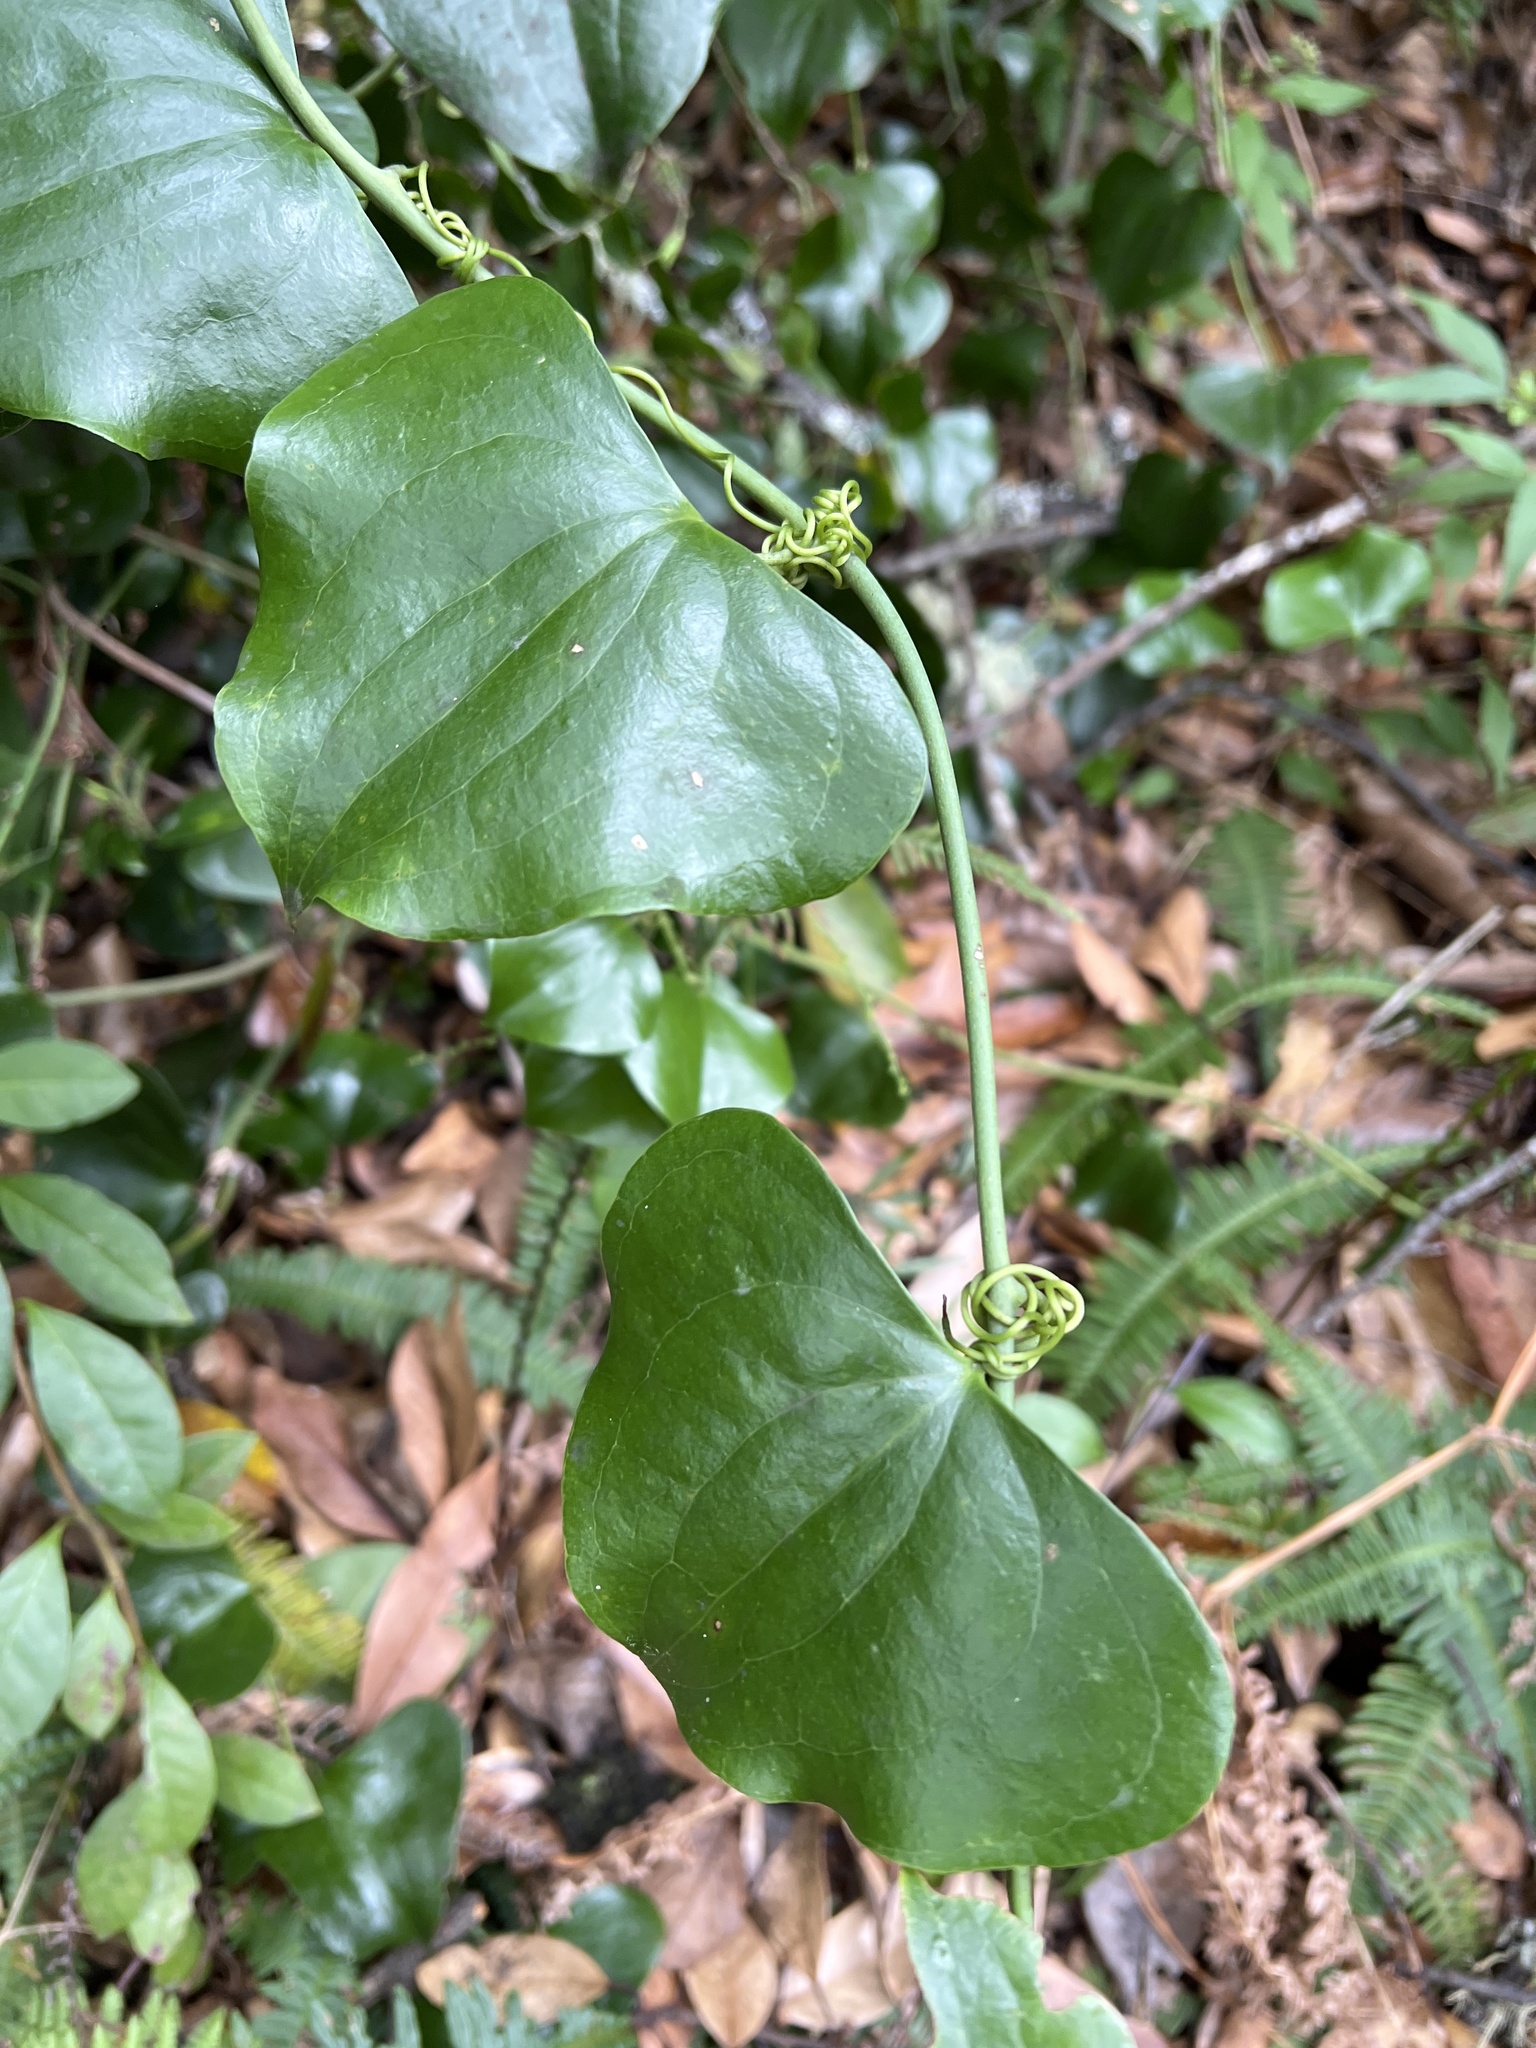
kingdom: Plantae
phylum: Tracheophyta
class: Liliopsida
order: Liliales
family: Smilacaceae
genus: Smilax
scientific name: Smilax aspera
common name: Common smilax
